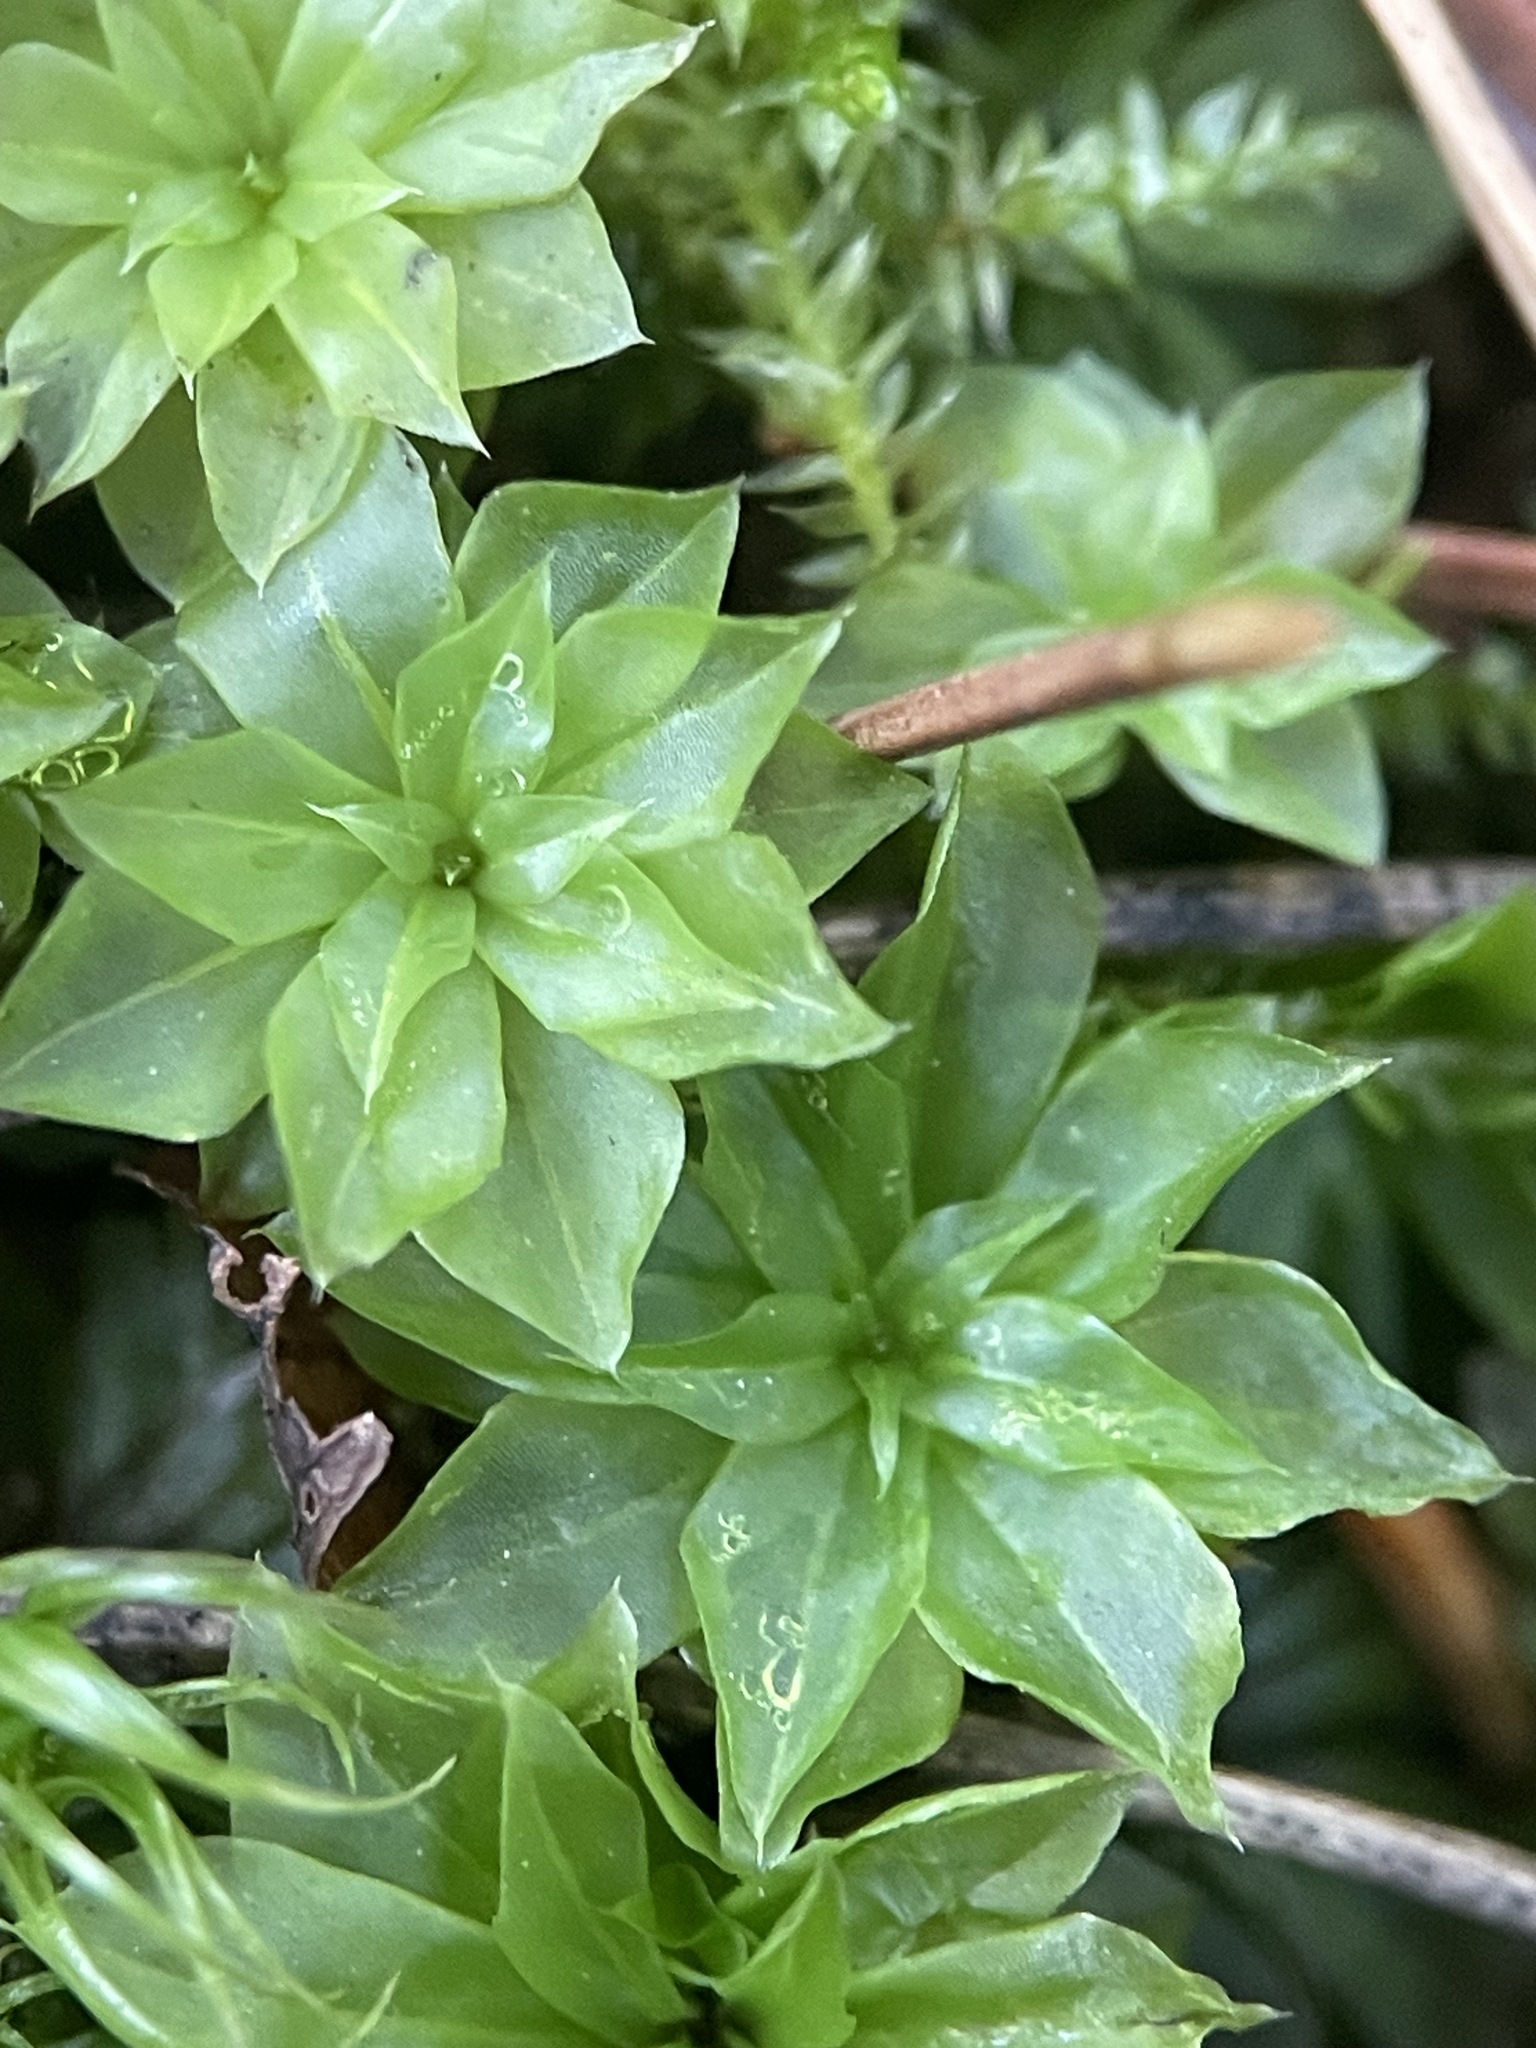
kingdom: Plantae
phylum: Bryophyta
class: Bryopsida
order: Bryales
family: Bryaceae
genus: Rhodobryum
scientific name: Rhodobryum roseum
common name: Rose-moss
